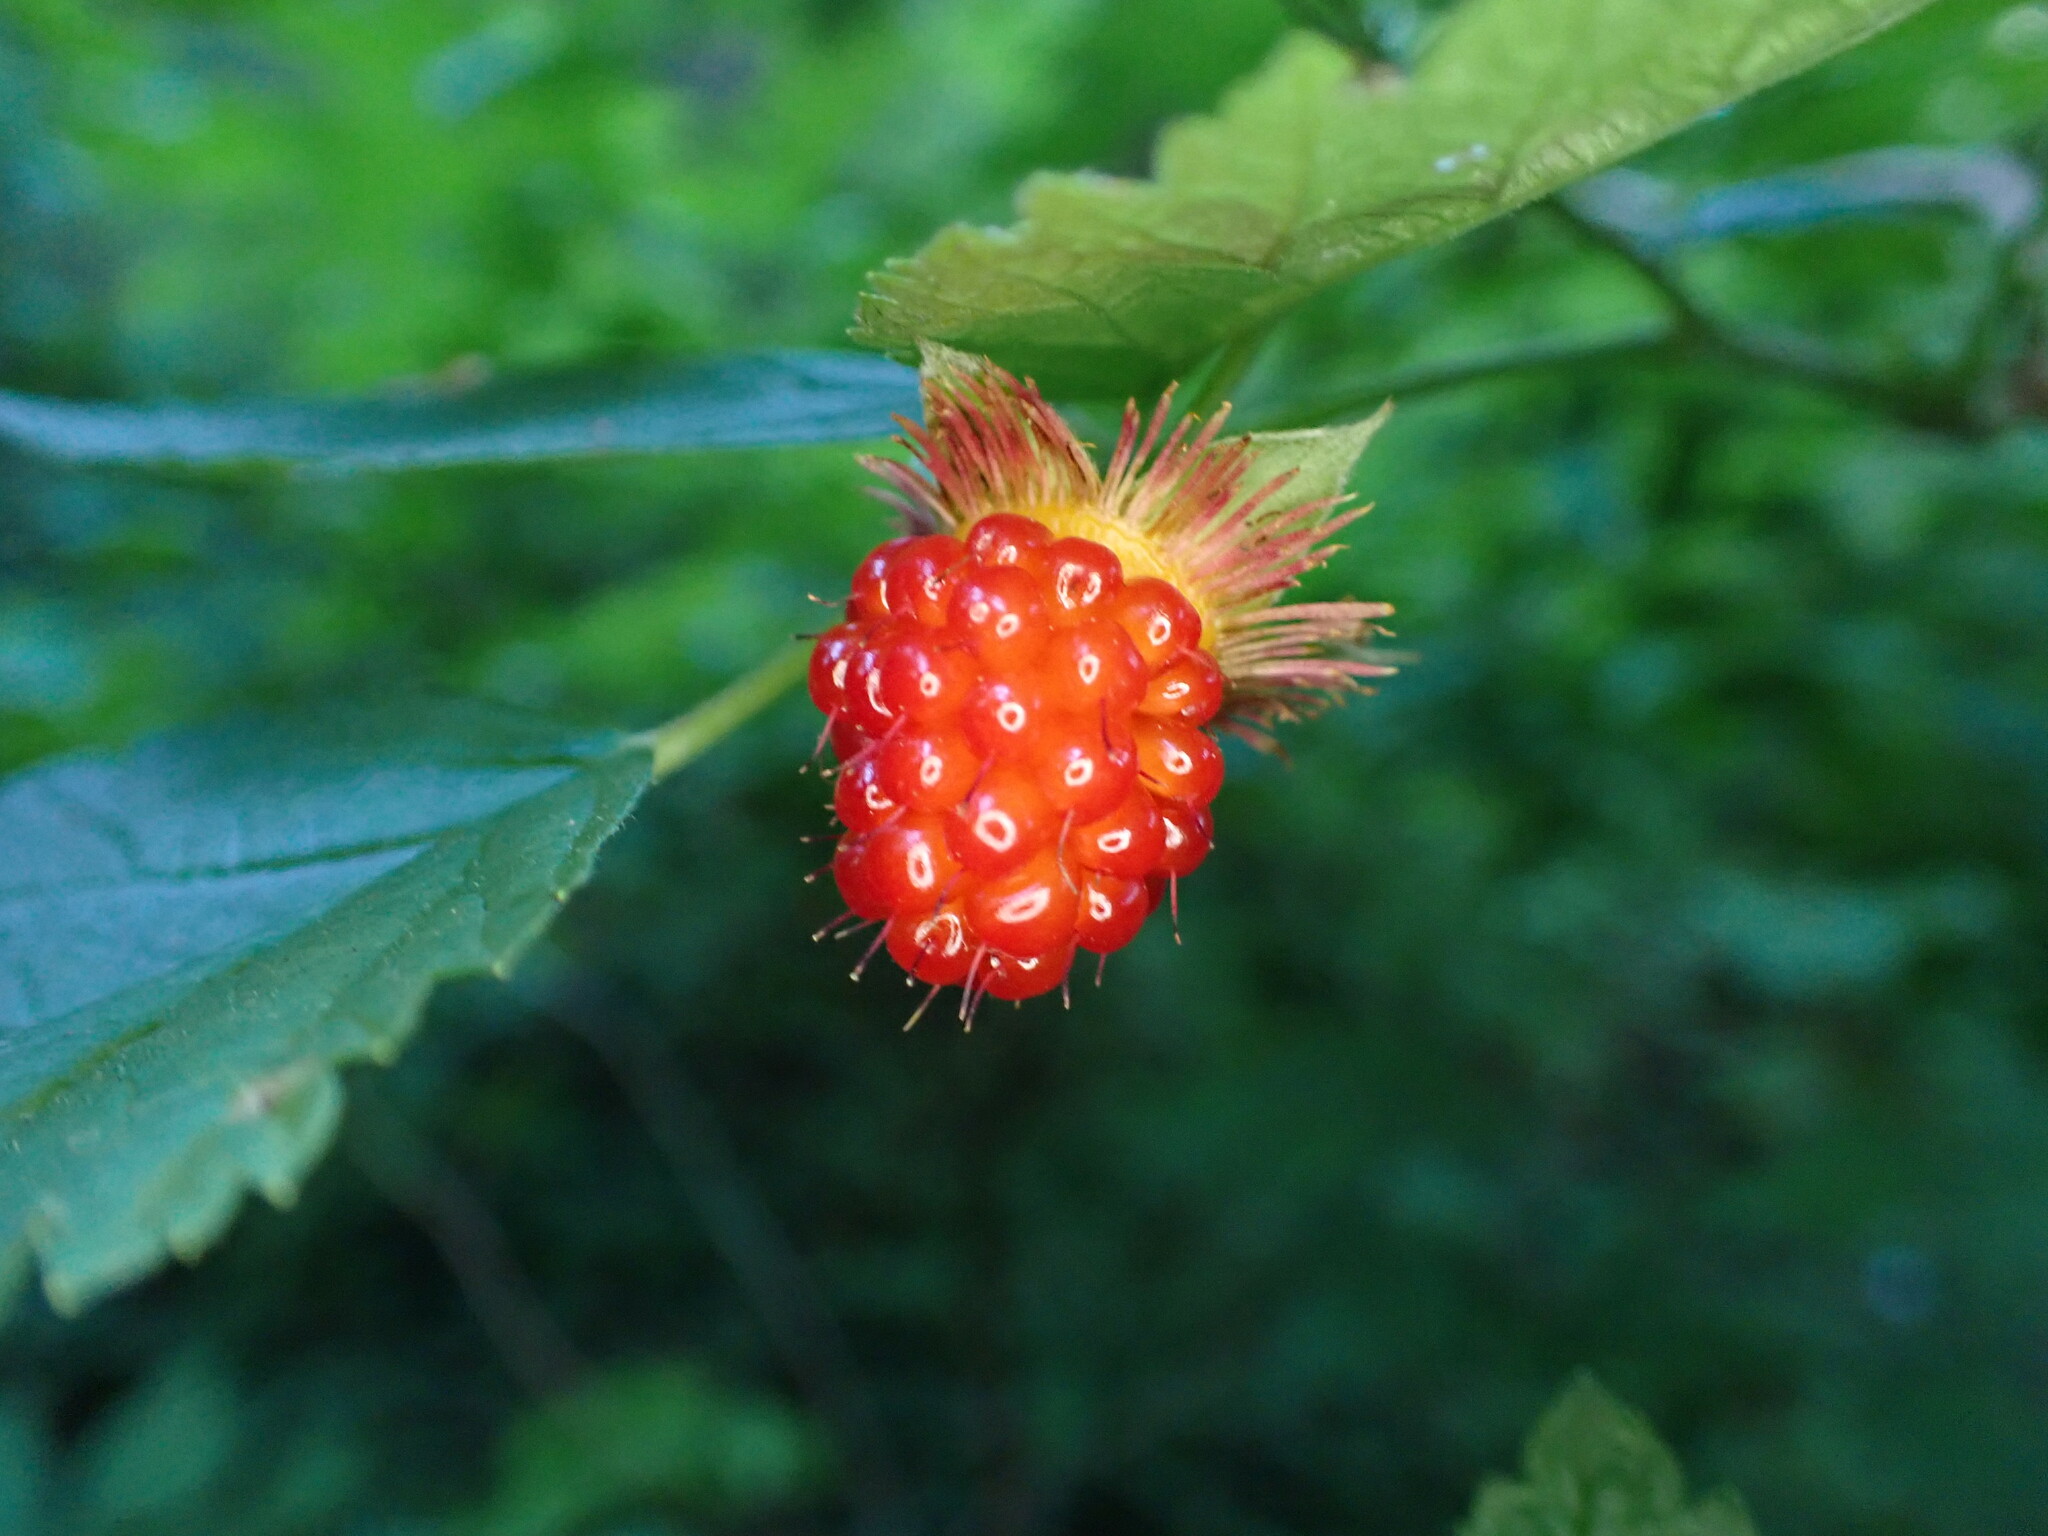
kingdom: Plantae
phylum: Tracheophyta
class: Magnoliopsida
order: Rosales
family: Rosaceae
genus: Rubus
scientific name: Rubus spectabilis
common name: Salmonberry
